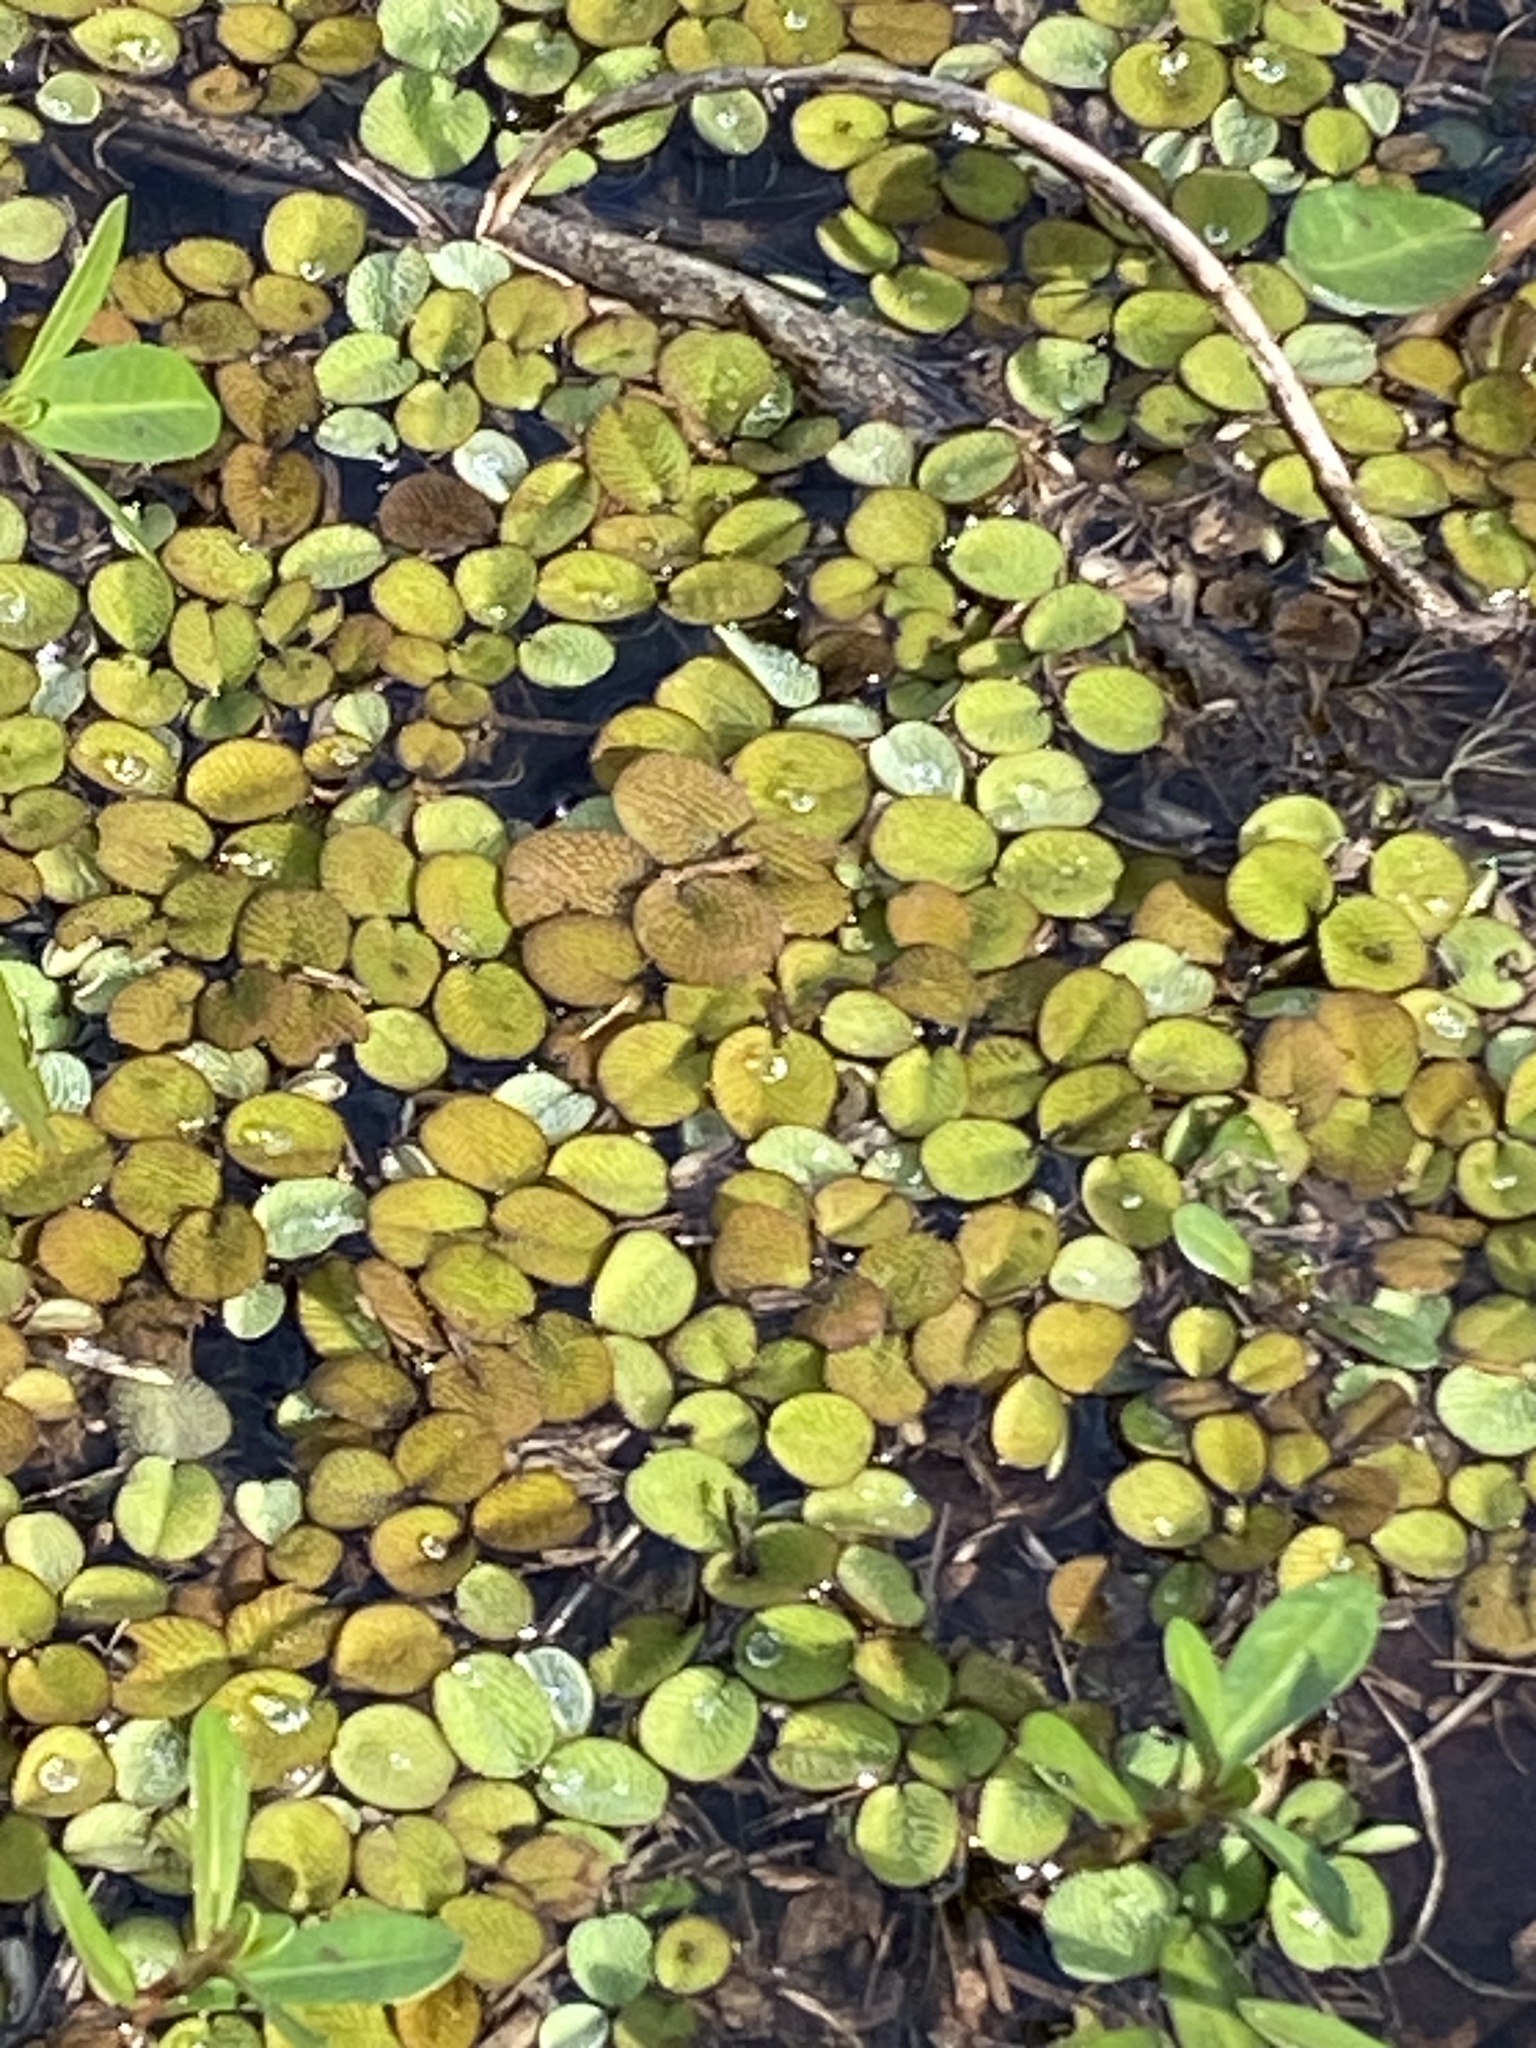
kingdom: Plantae
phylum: Tracheophyta
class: Polypodiopsida
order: Salviniales
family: Salviniaceae
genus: Salvinia
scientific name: Salvinia minima
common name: Water spangles
